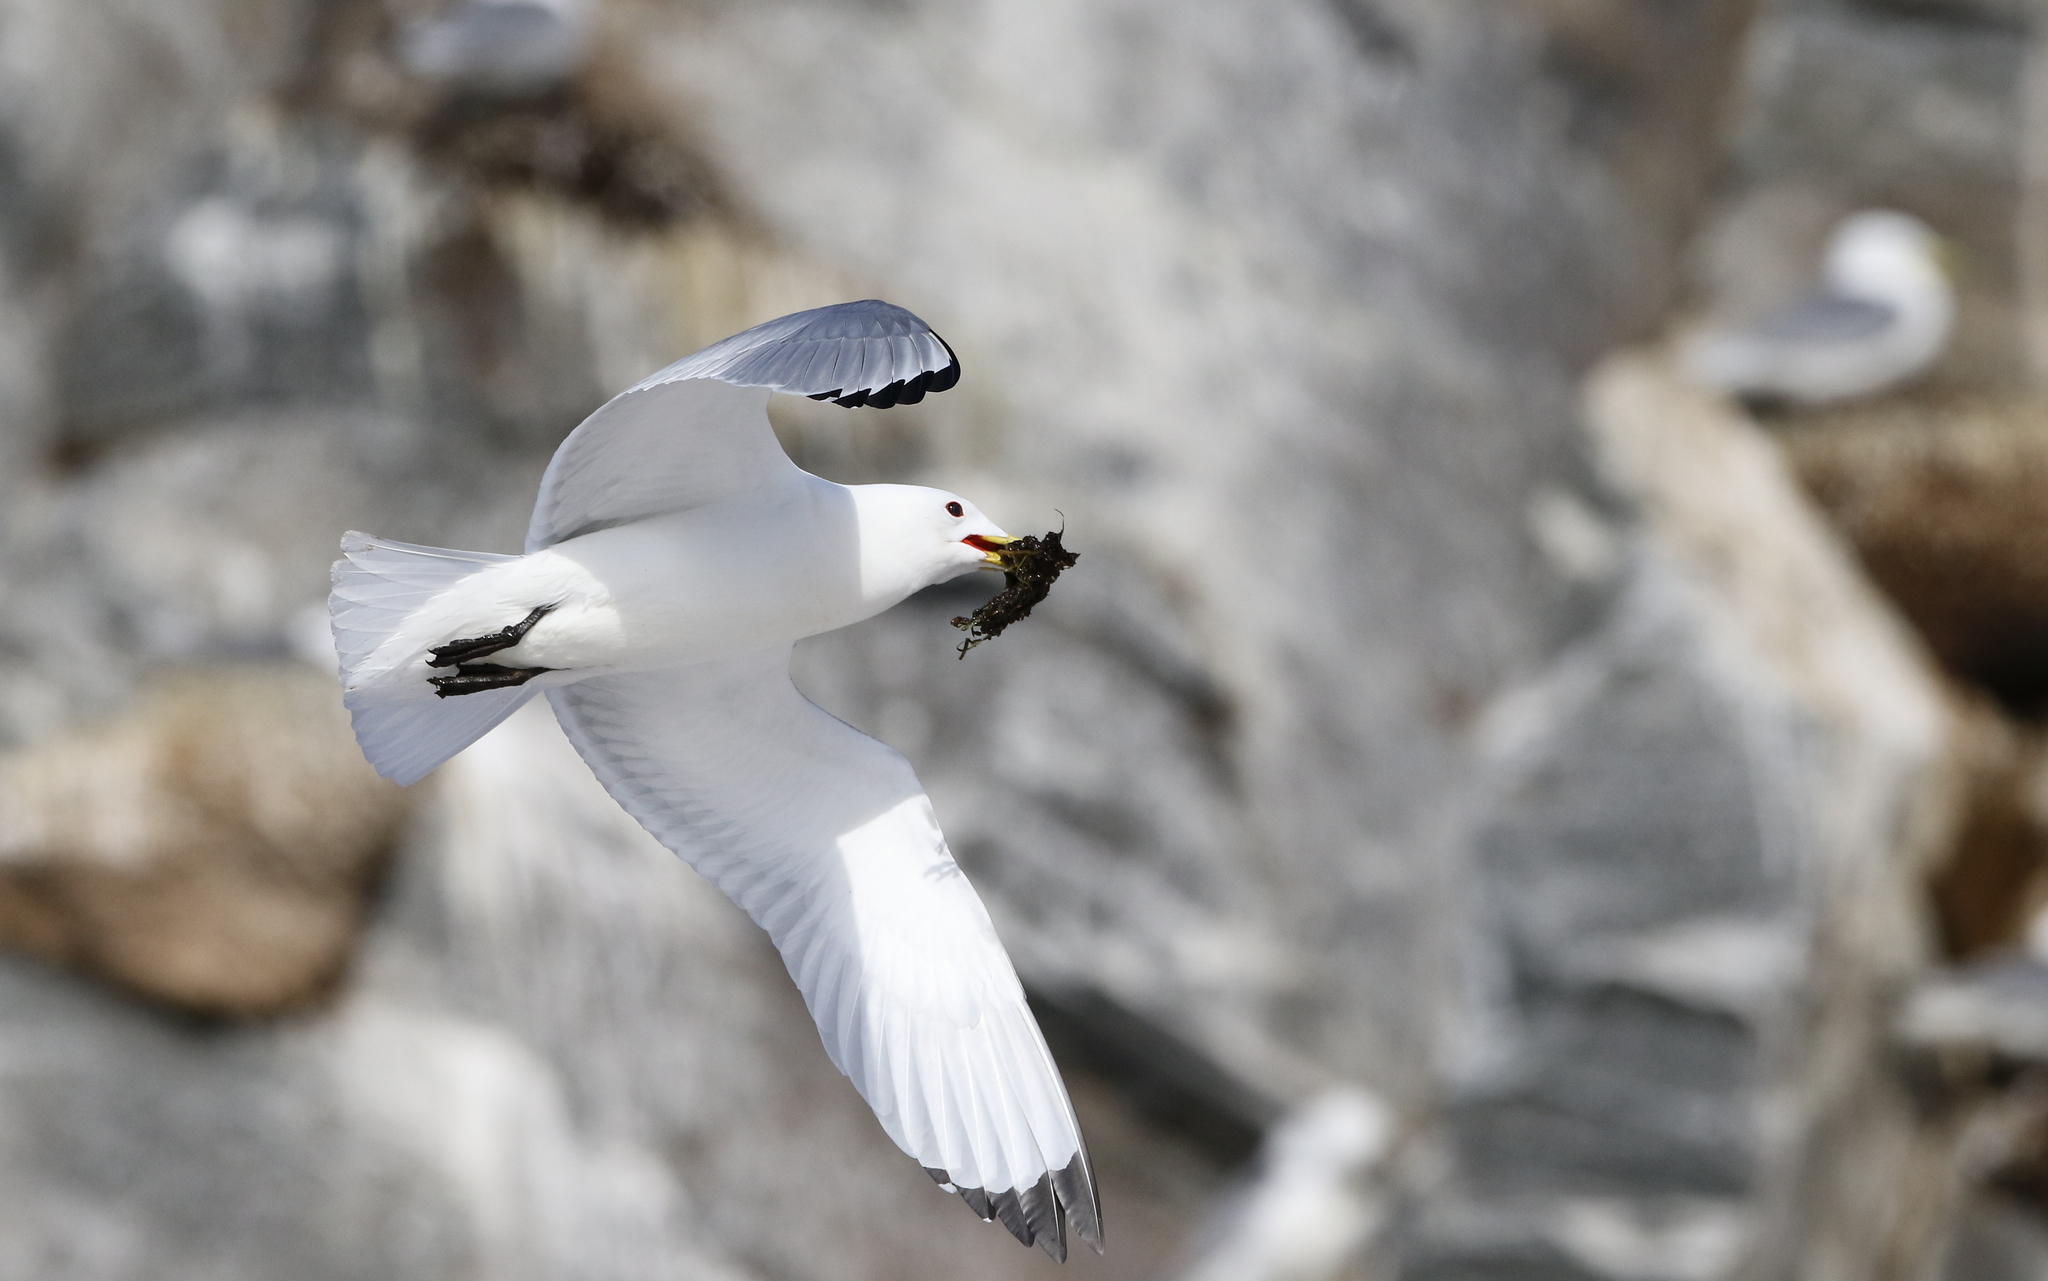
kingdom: Animalia
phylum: Chordata
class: Aves
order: Charadriiformes
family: Laridae
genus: Rissa
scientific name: Rissa tridactyla
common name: Black-legged kittiwake
